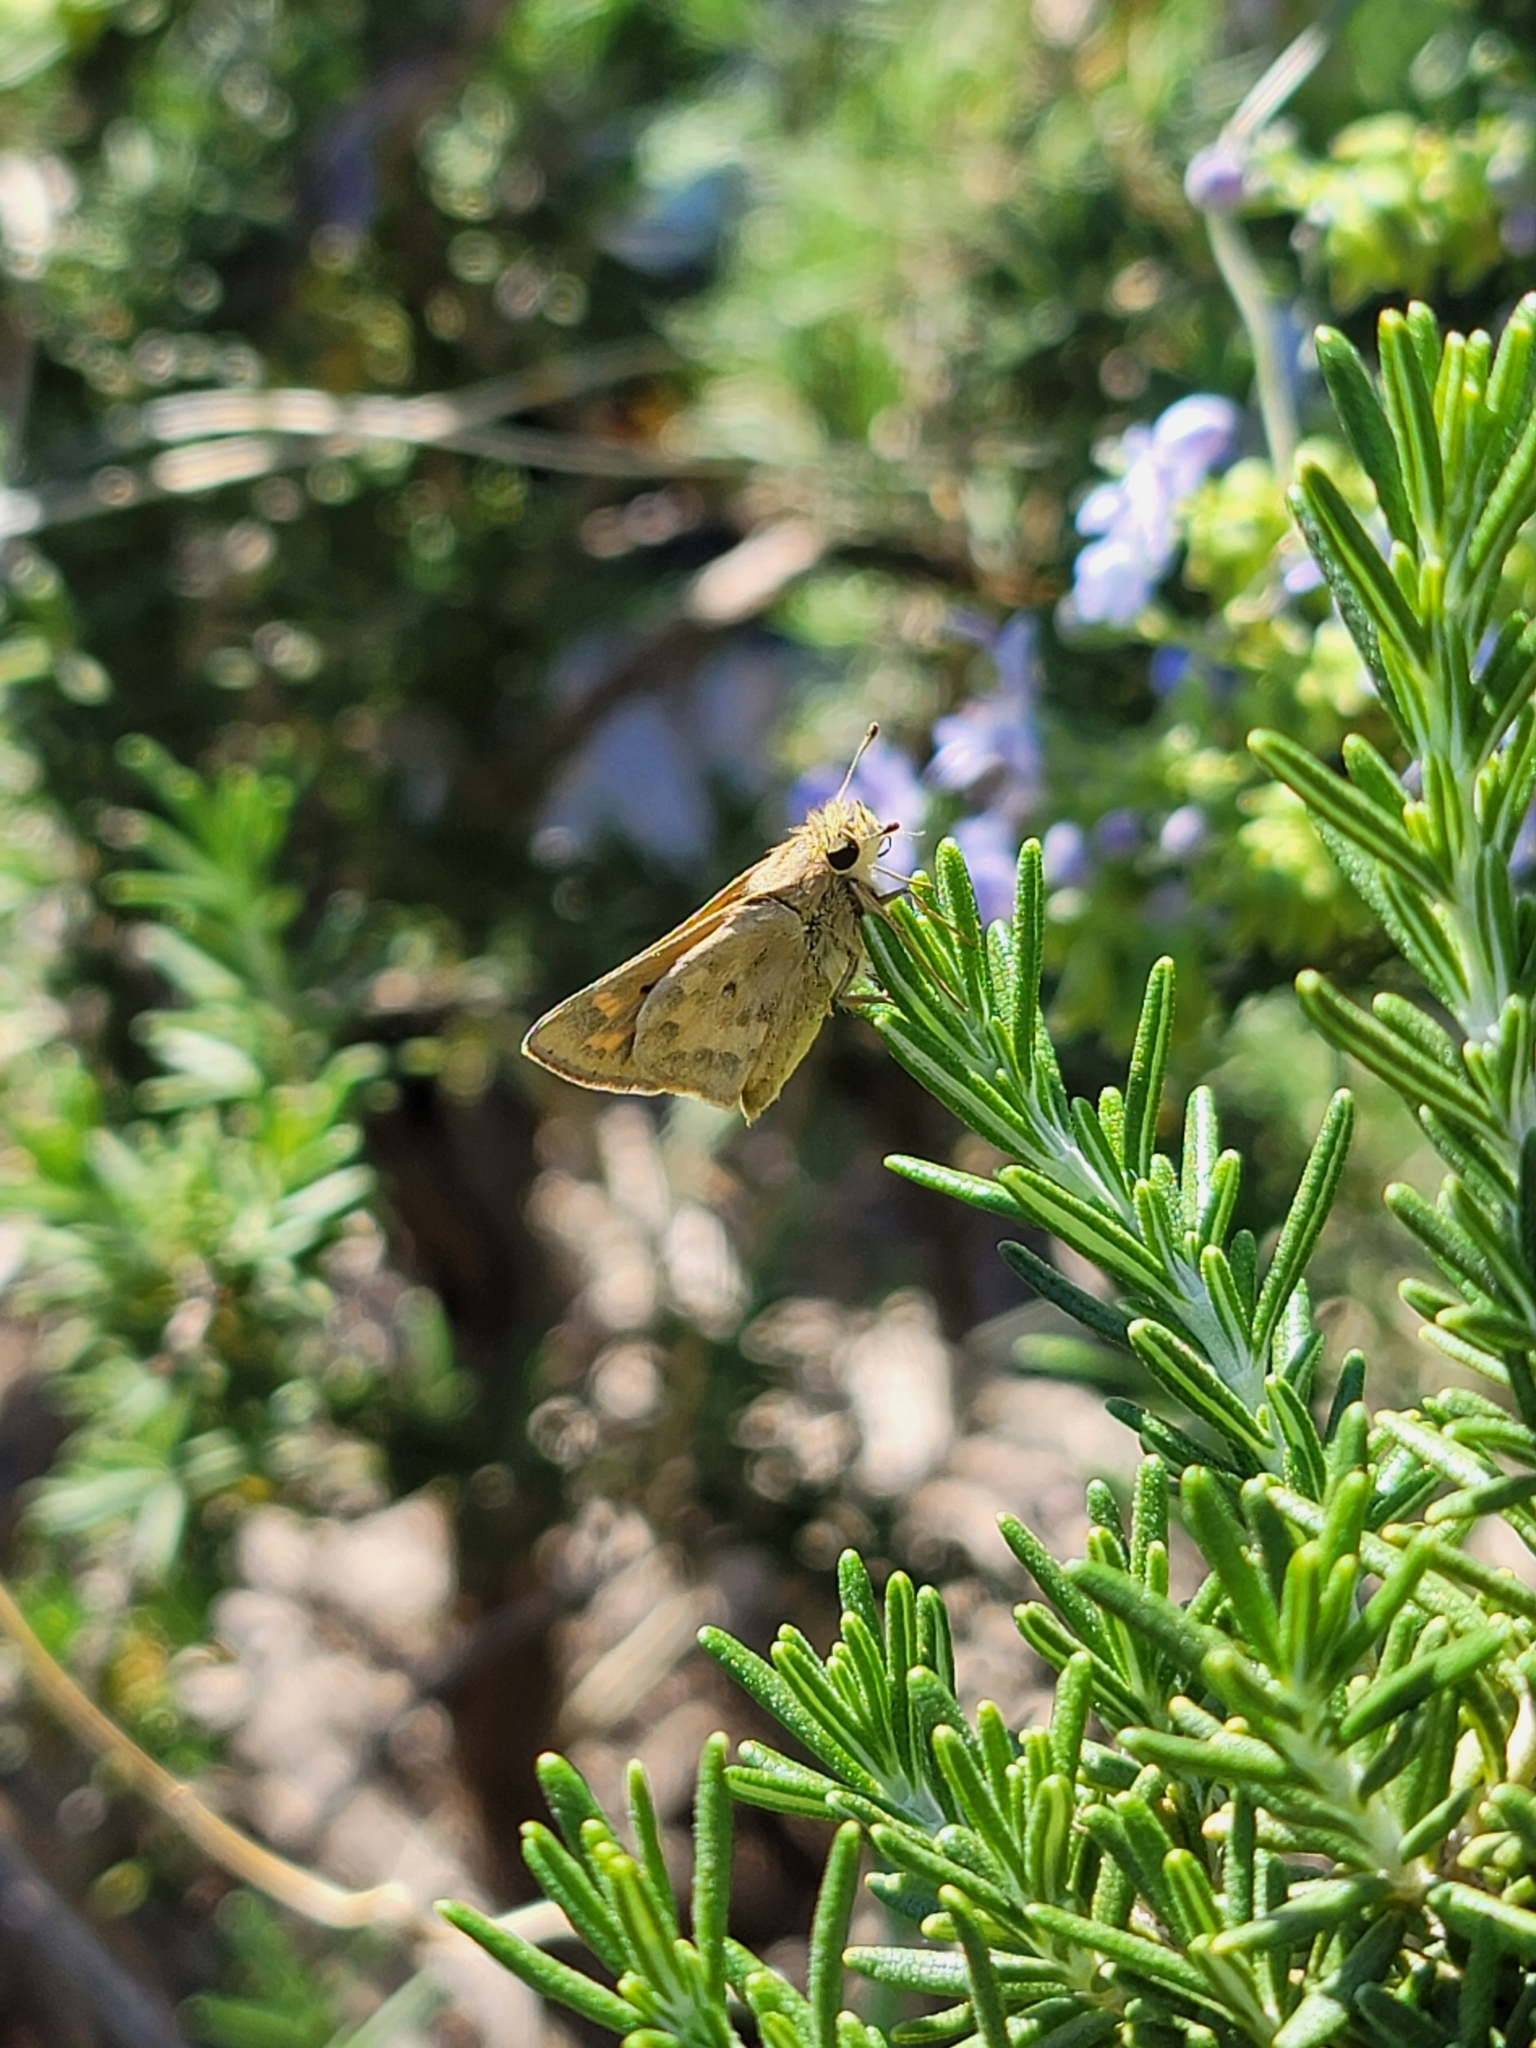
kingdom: Animalia
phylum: Arthropoda
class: Insecta
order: Lepidoptera
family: Hesperiidae
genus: Hylephila
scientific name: Hylephila phyleus
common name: Fiery skipper
